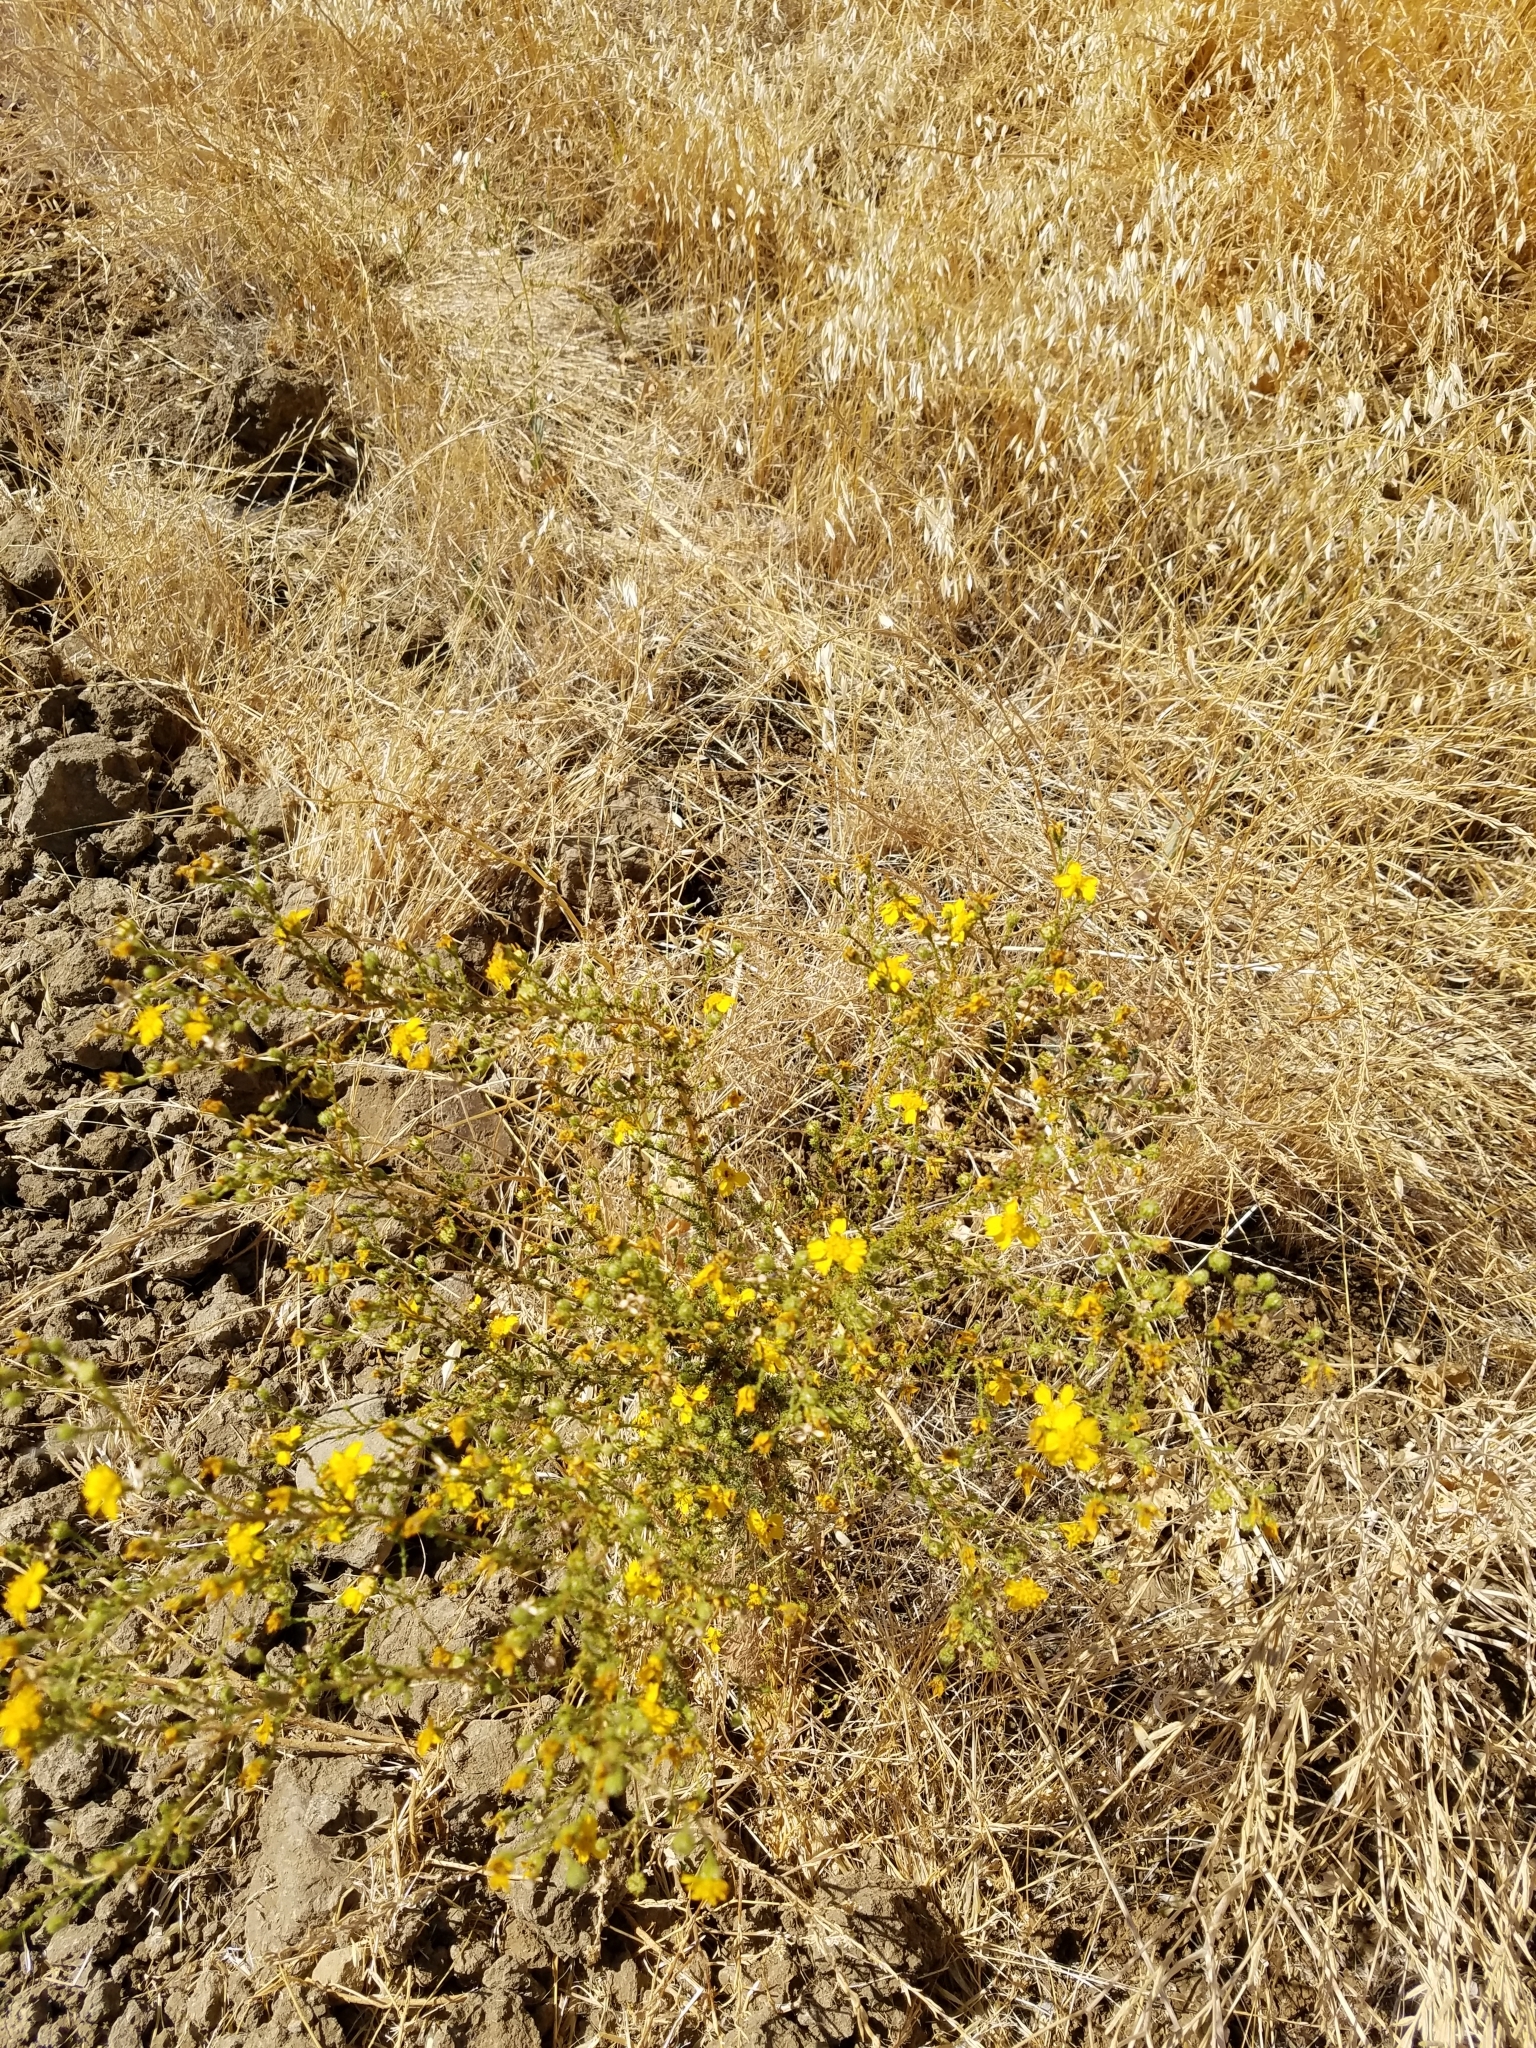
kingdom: Plantae
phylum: Tracheophyta
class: Magnoliopsida
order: Asterales
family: Asteraceae
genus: Holocarpha
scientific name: Holocarpha obconica
